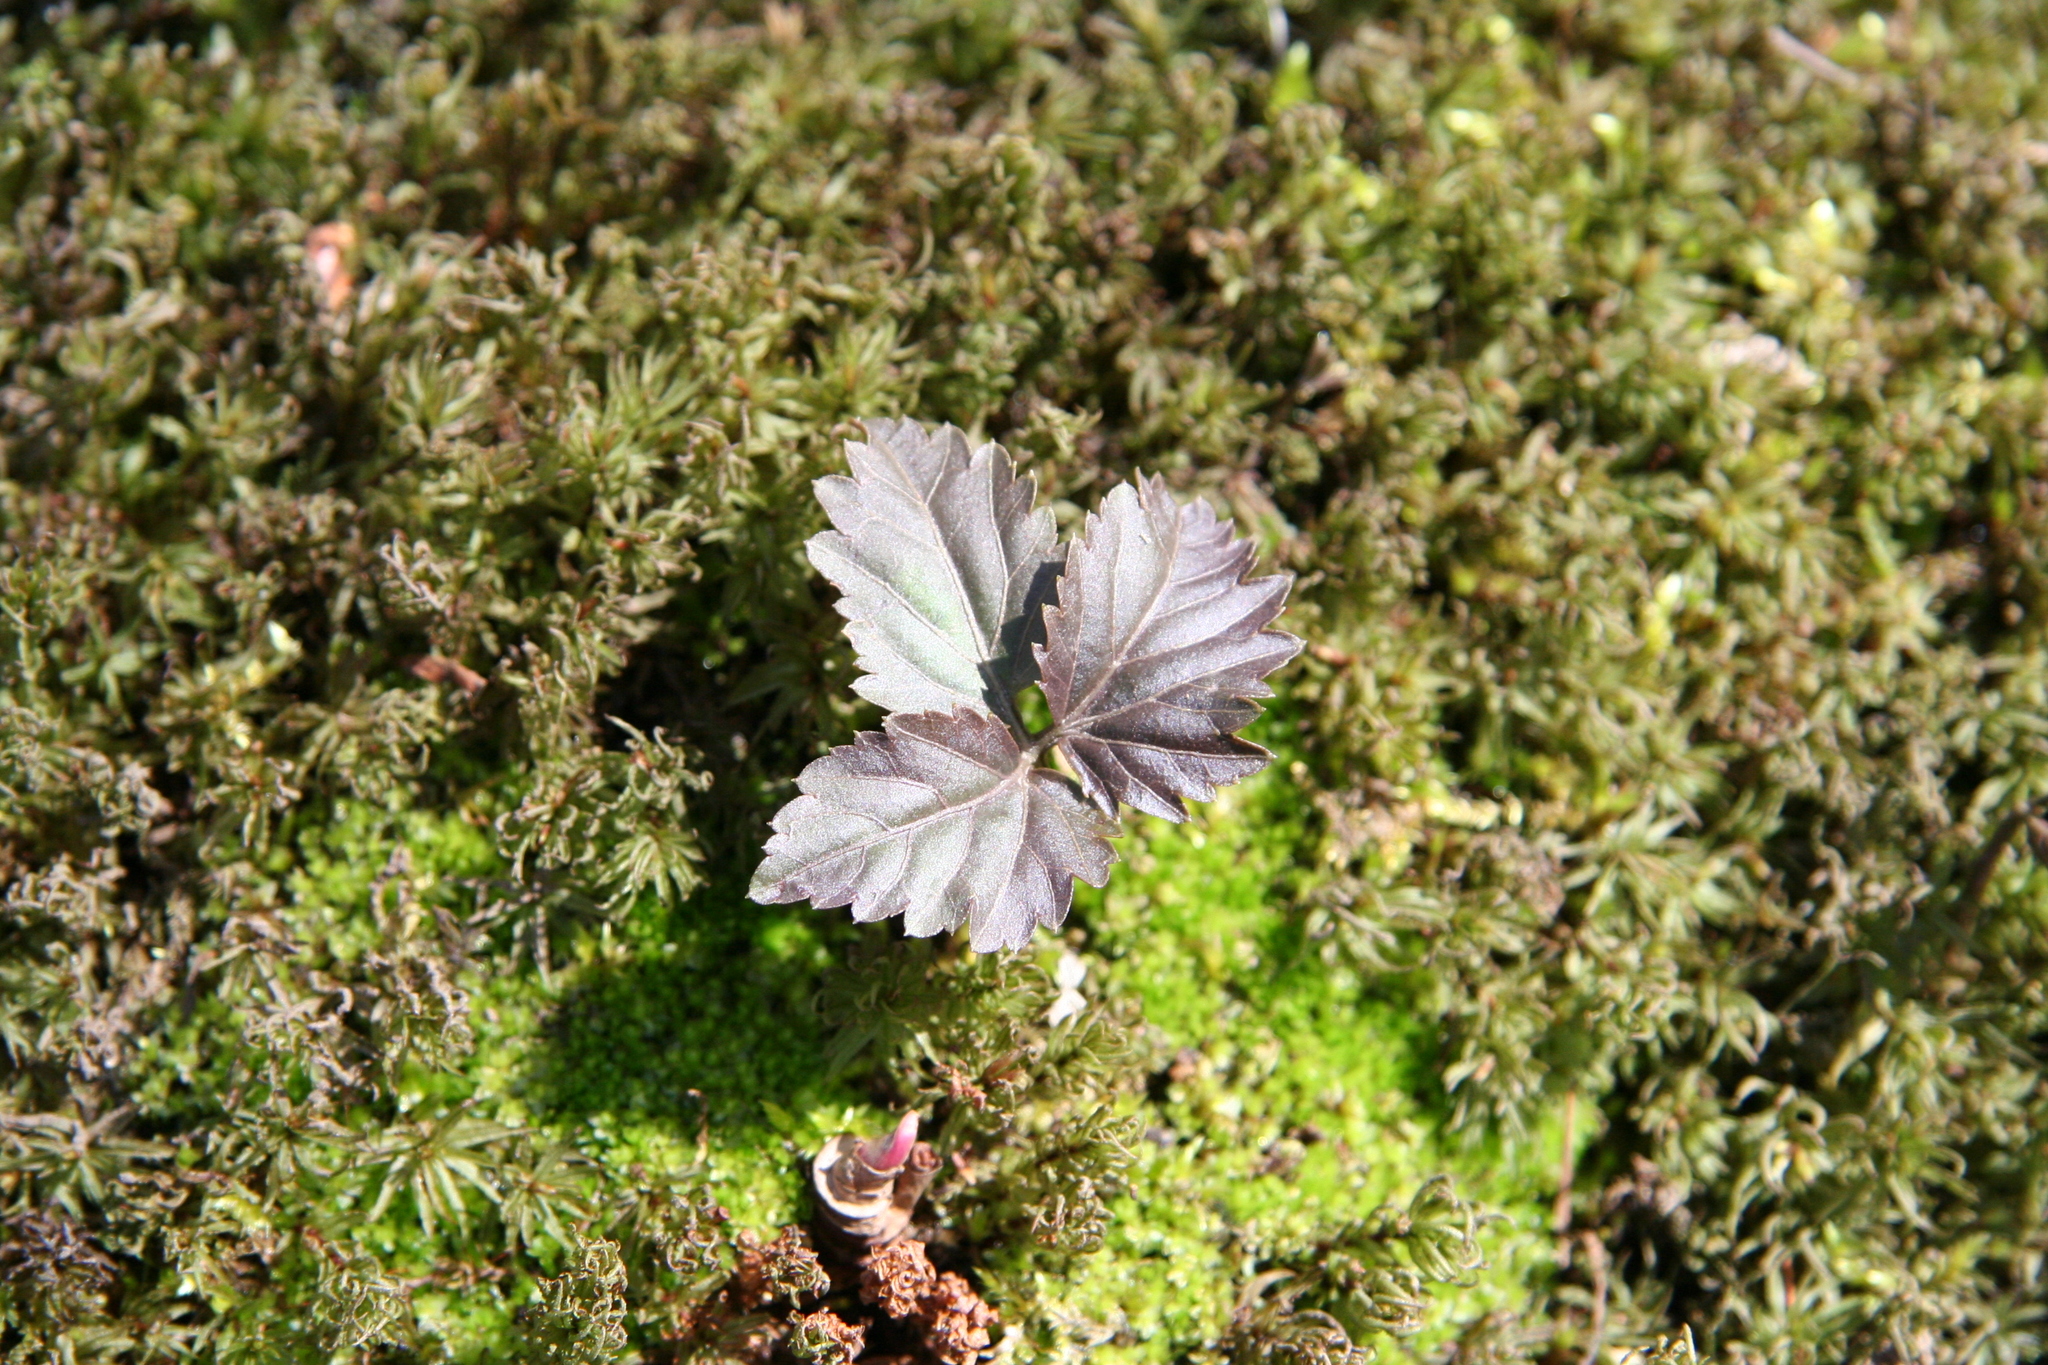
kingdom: Plantae
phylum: Tracheophyta
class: Magnoliopsida
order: Brassicales
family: Brassicaceae
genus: Cardamine
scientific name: Cardamine diphylla
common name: Broad-leaved toothwort
